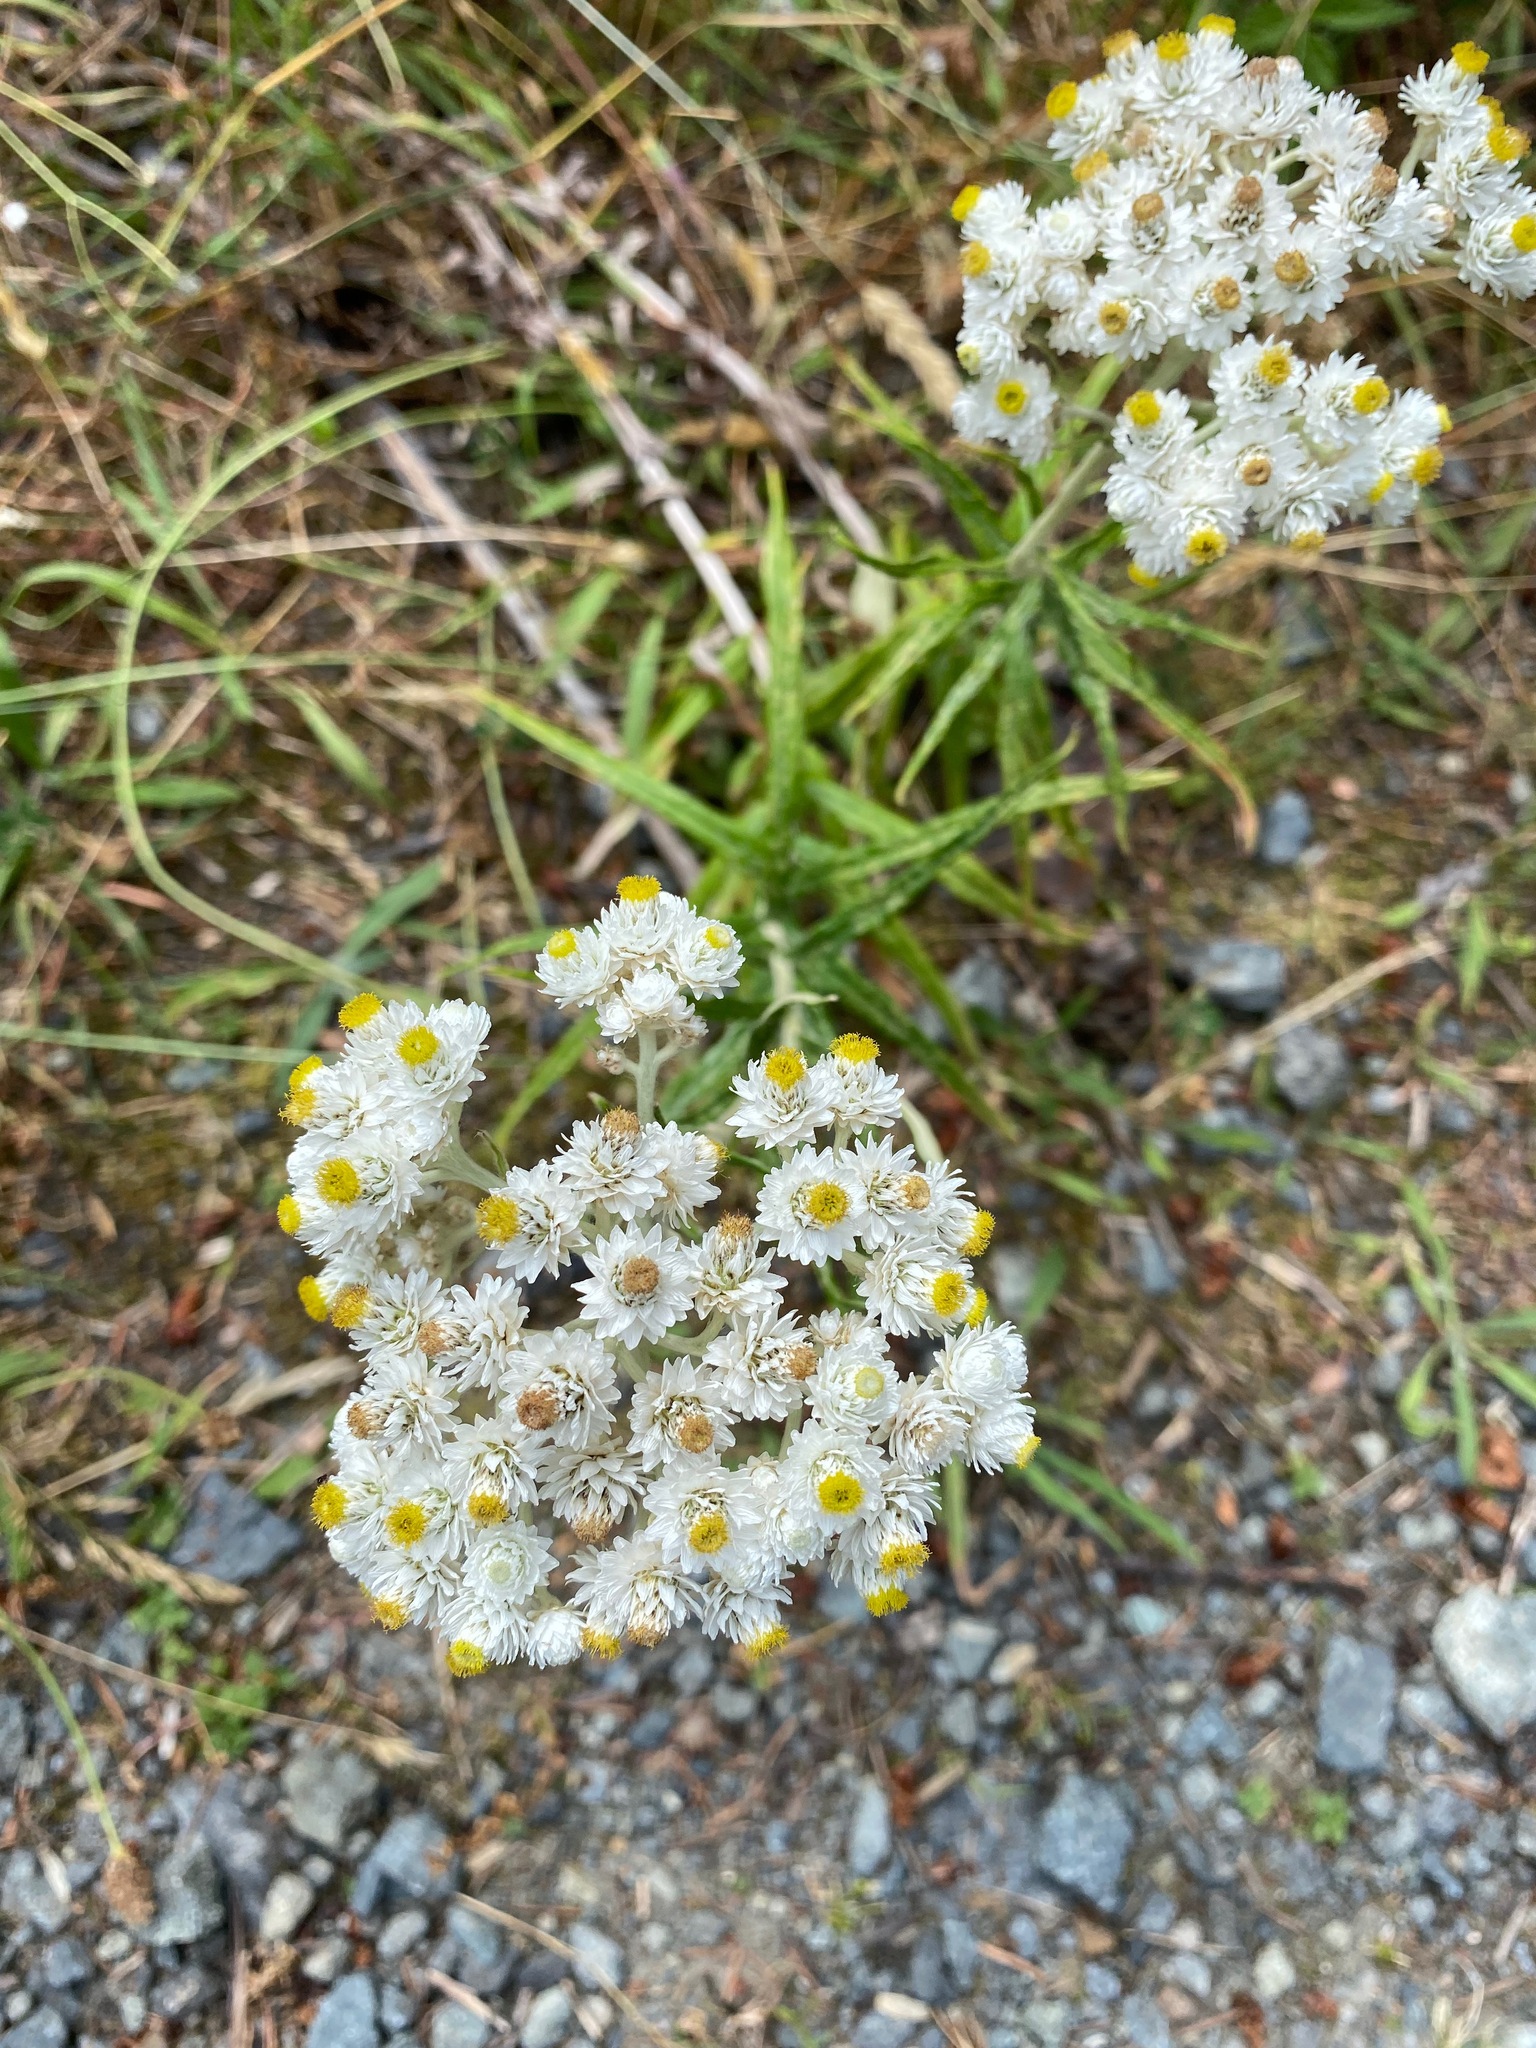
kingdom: Plantae
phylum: Tracheophyta
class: Magnoliopsida
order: Asterales
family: Asteraceae
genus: Anaphalis
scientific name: Anaphalis margaritacea
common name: Pearly everlasting
